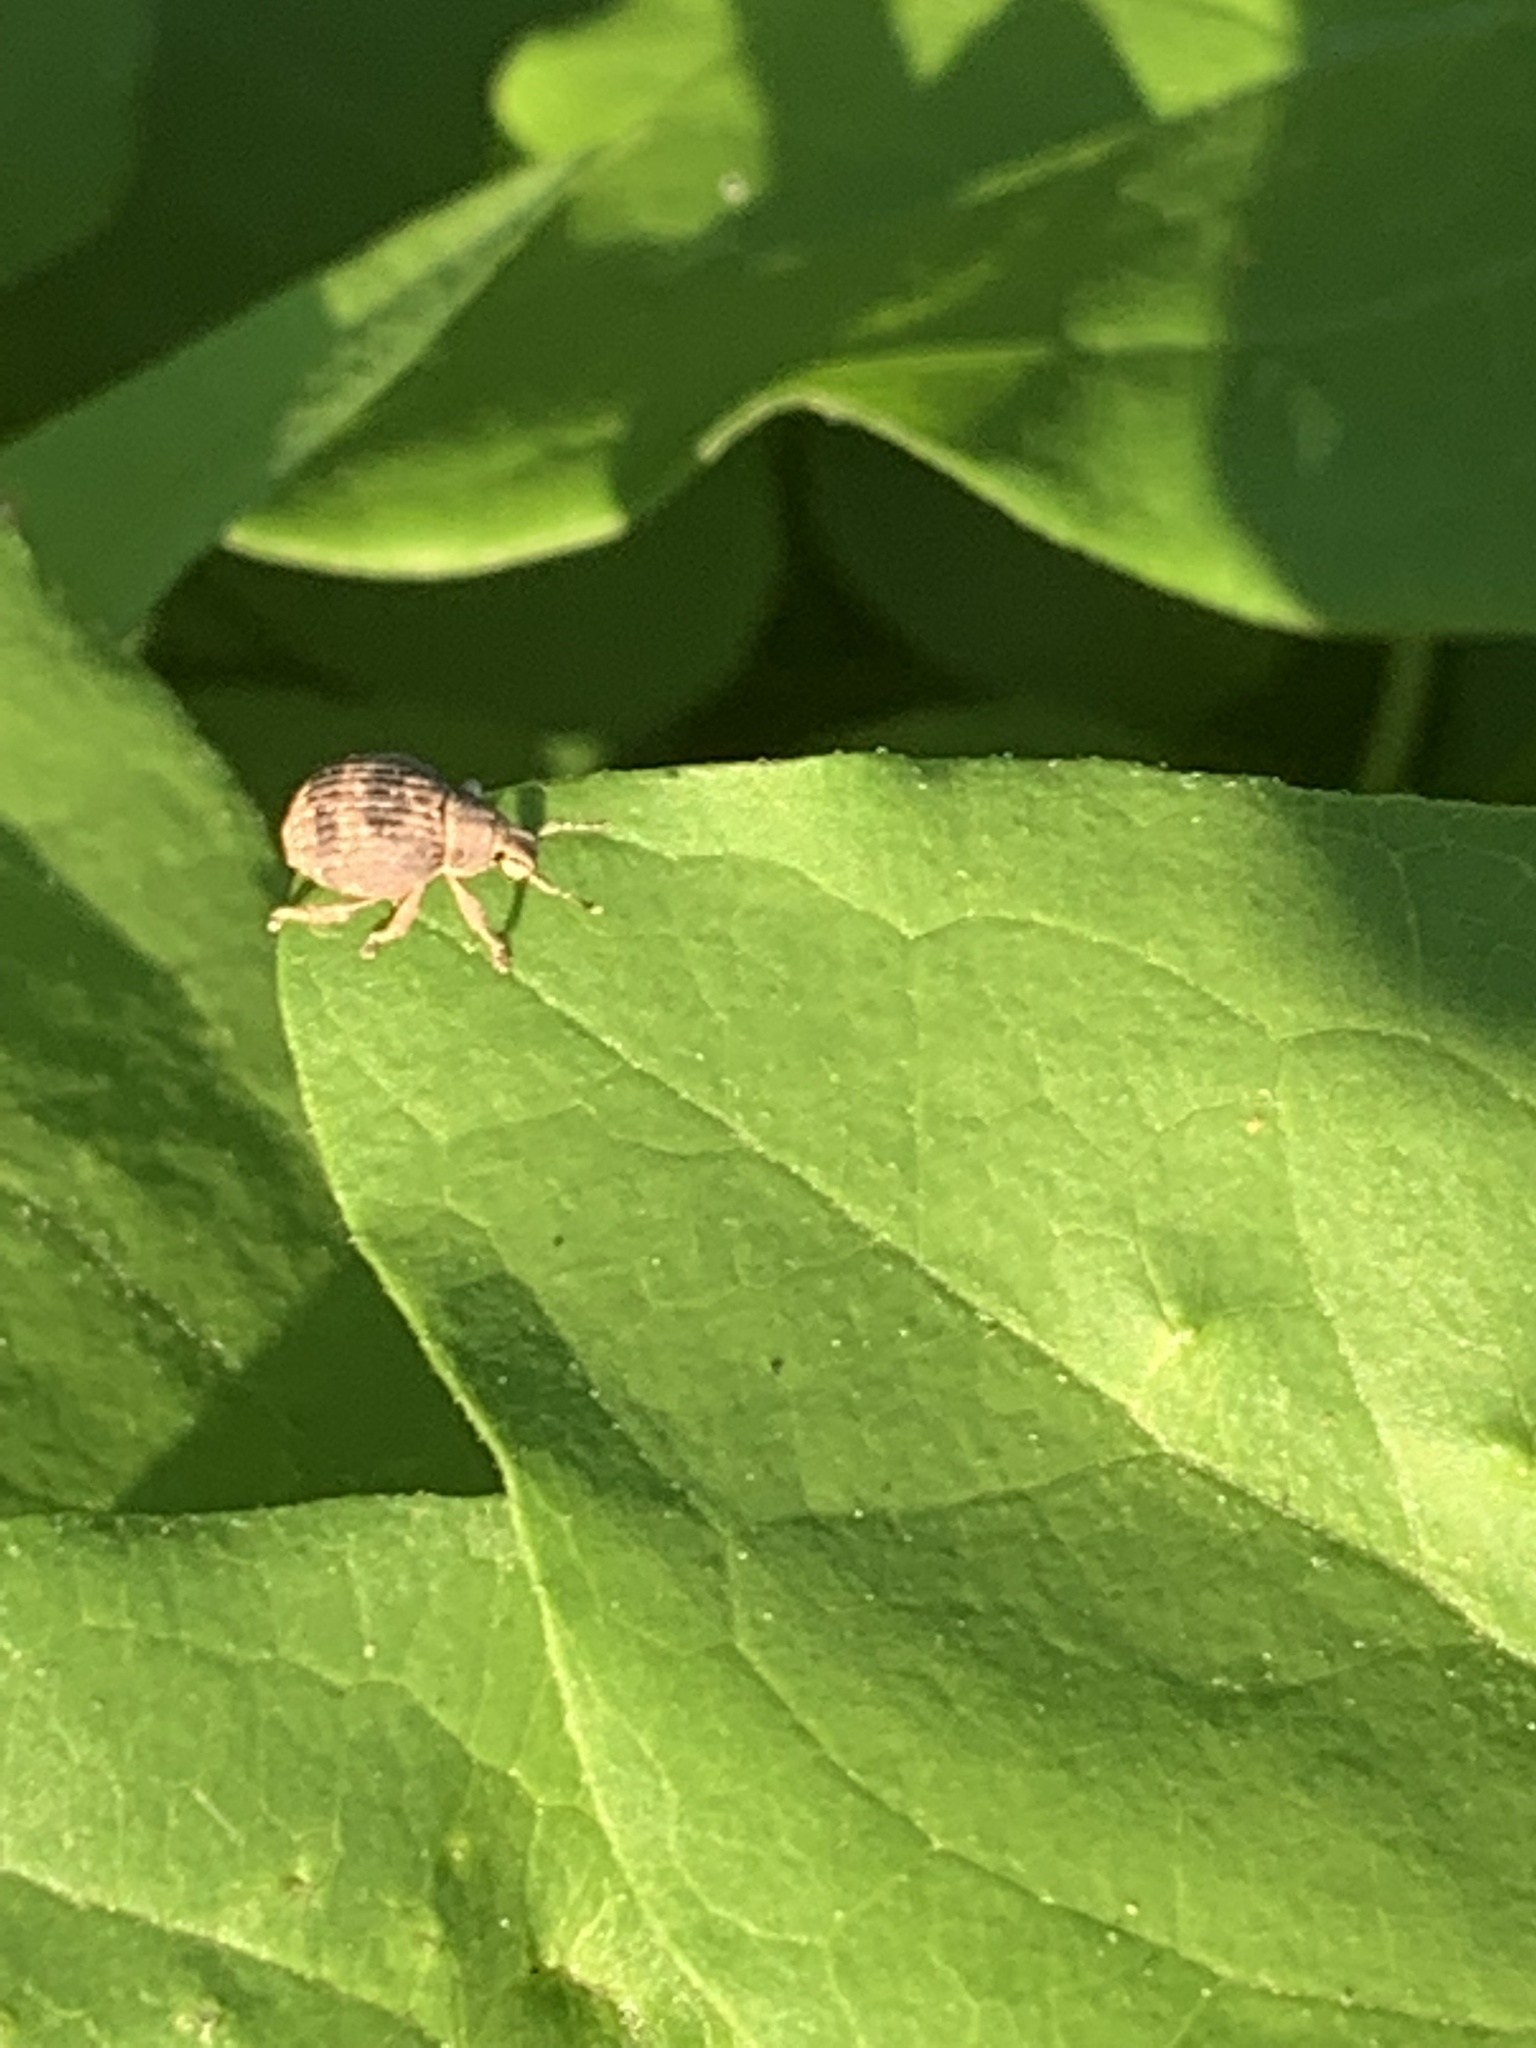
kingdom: Animalia
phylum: Arthropoda
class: Insecta
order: Coleoptera
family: Curculionidae
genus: Pseudocneorhinus
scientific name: Pseudocneorhinus bifasciatus
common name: Two-banded japanese weevil
